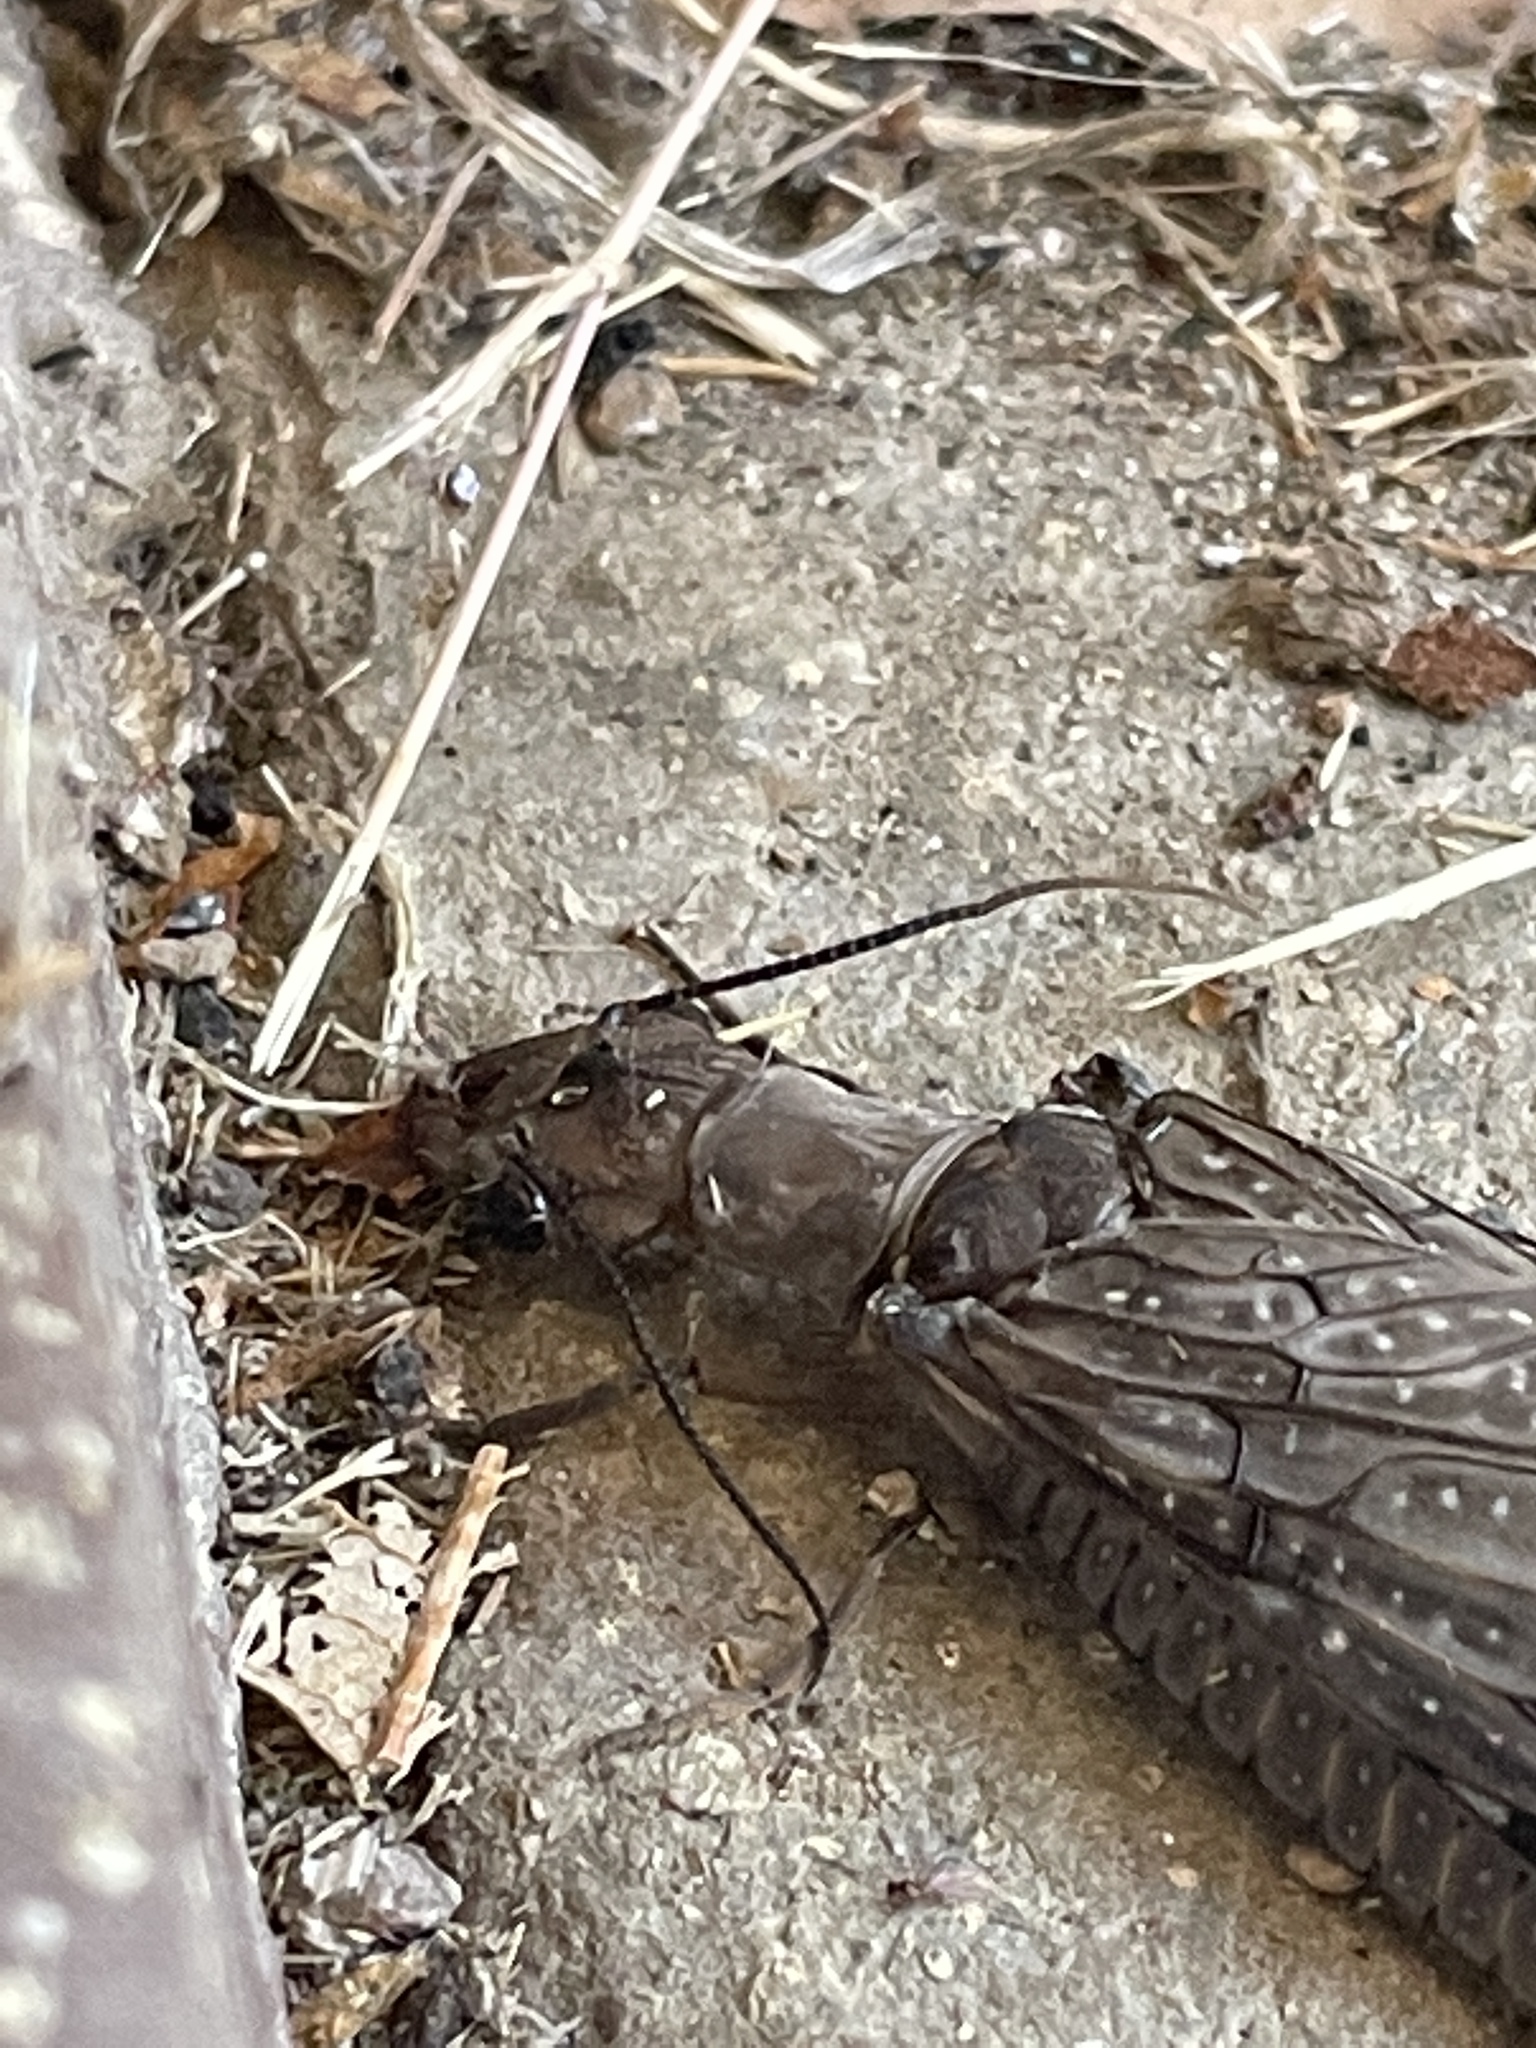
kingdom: Animalia
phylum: Arthropoda
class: Insecta
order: Megaloptera
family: Corydalidae
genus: Corydalus
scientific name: Corydalus texanus
